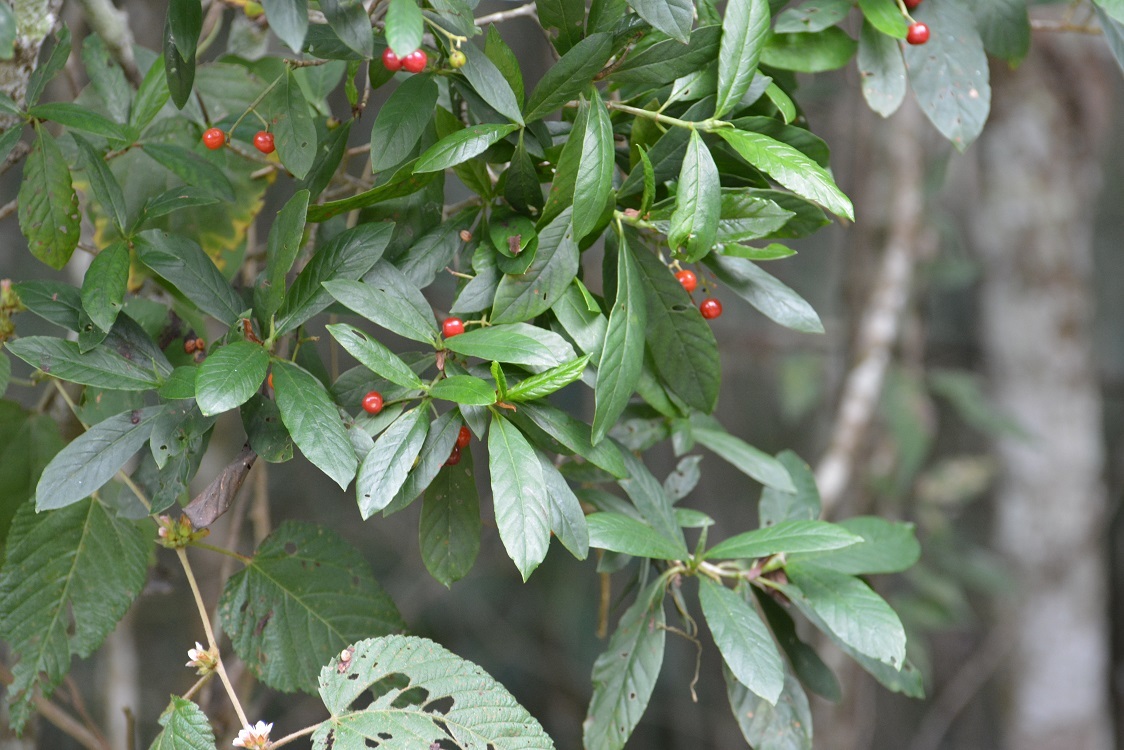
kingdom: Plantae
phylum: Tracheophyta
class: Magnoliopsida
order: Gentianales
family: Rubiaceae
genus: Psychotria
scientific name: Psychotria erythrocarpa
